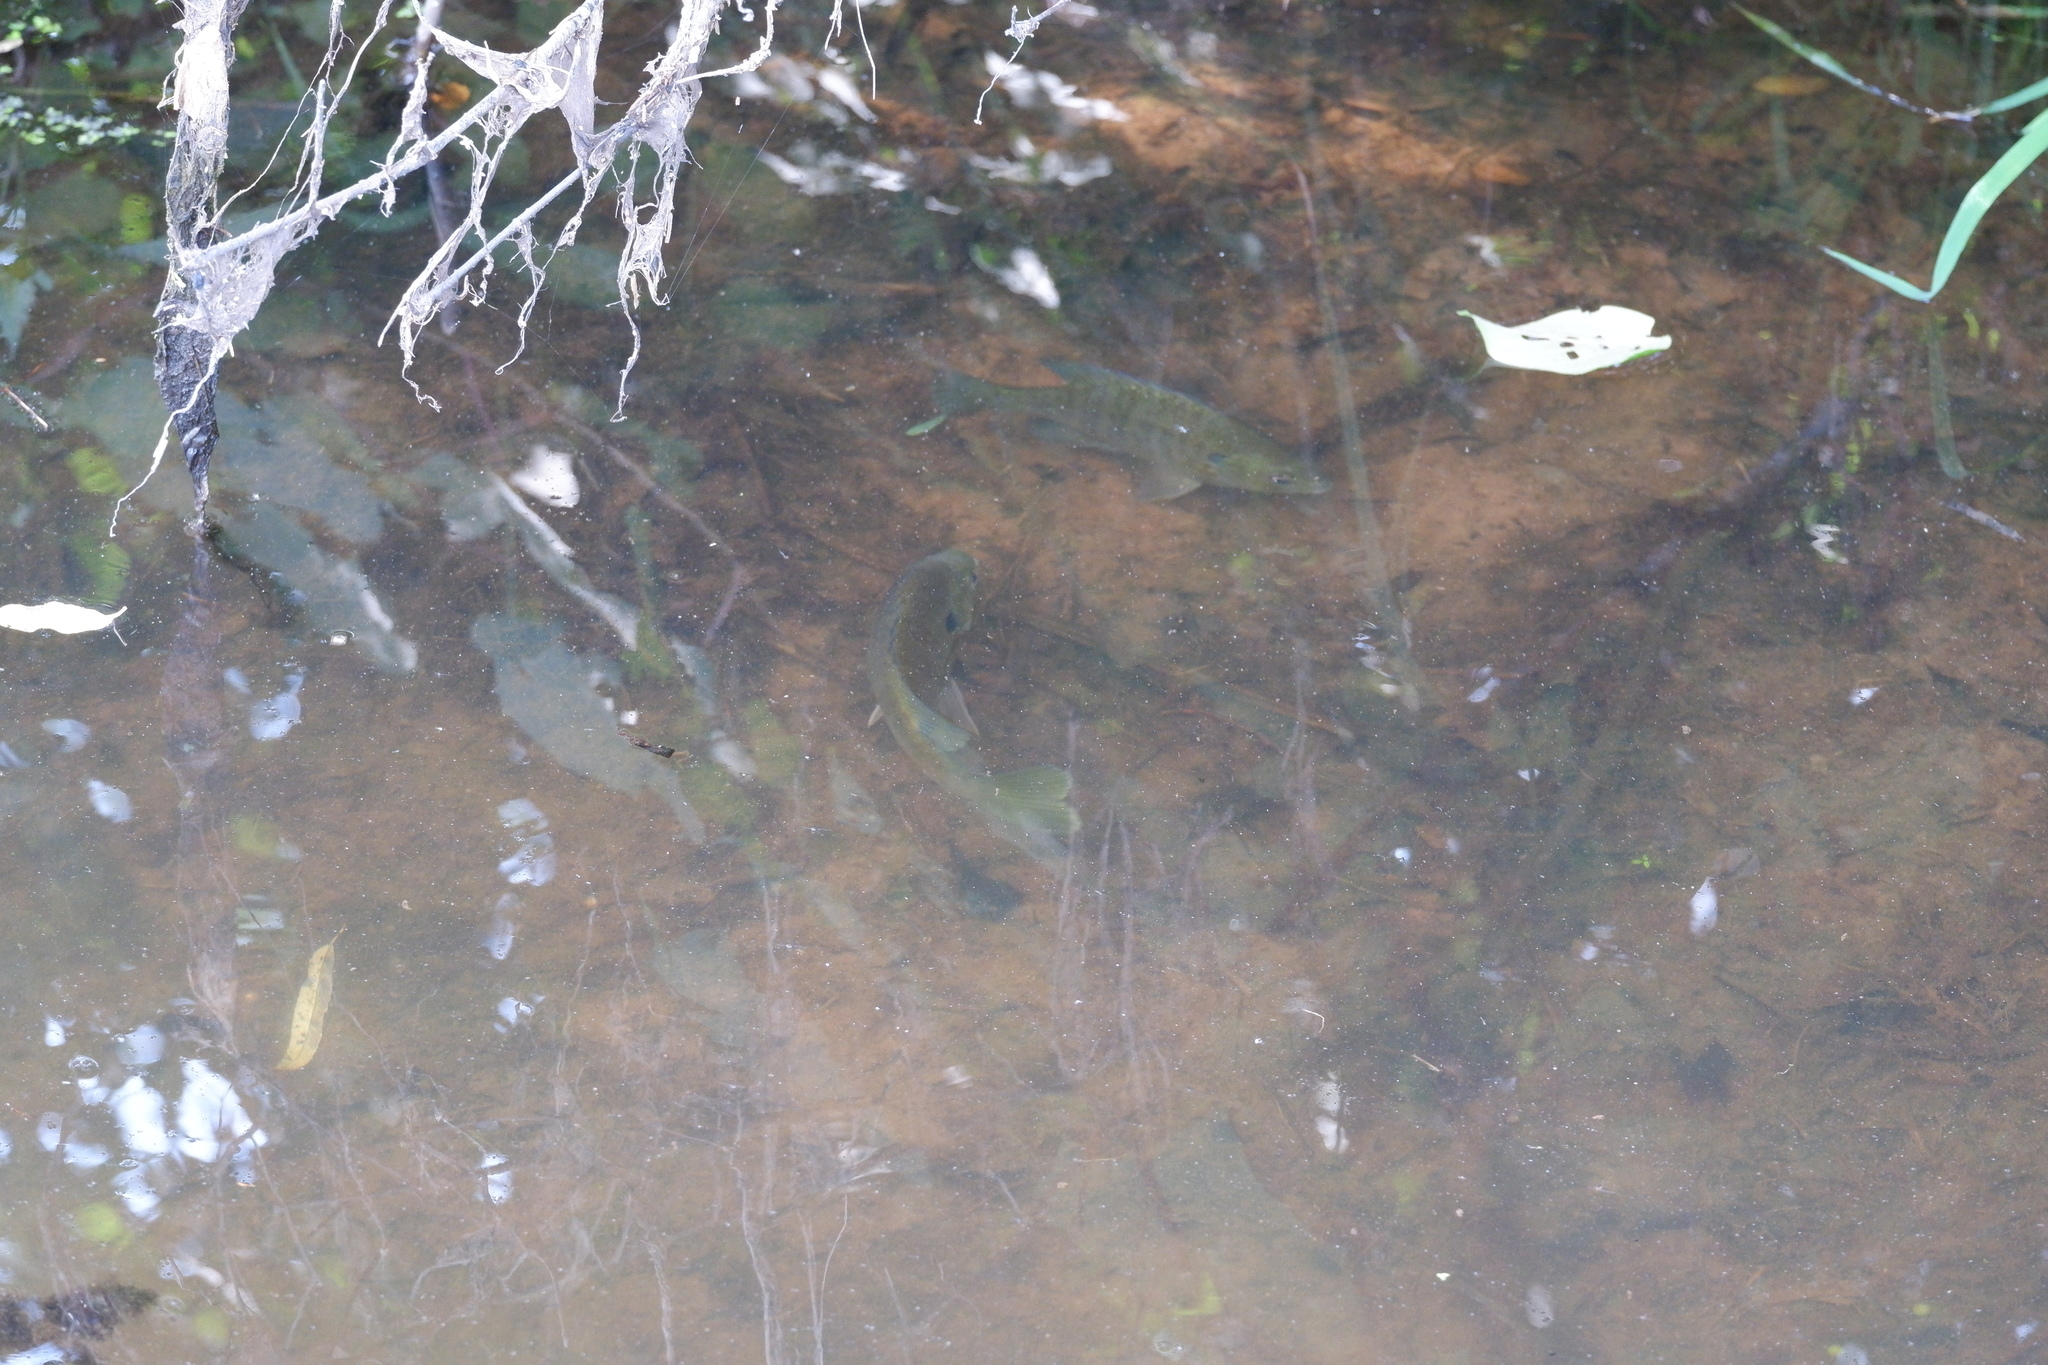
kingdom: Animalia
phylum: Chordata
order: Perciformes
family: Centrarchidae
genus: Lepomis
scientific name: Lepomis macrochirus
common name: Bluegill
